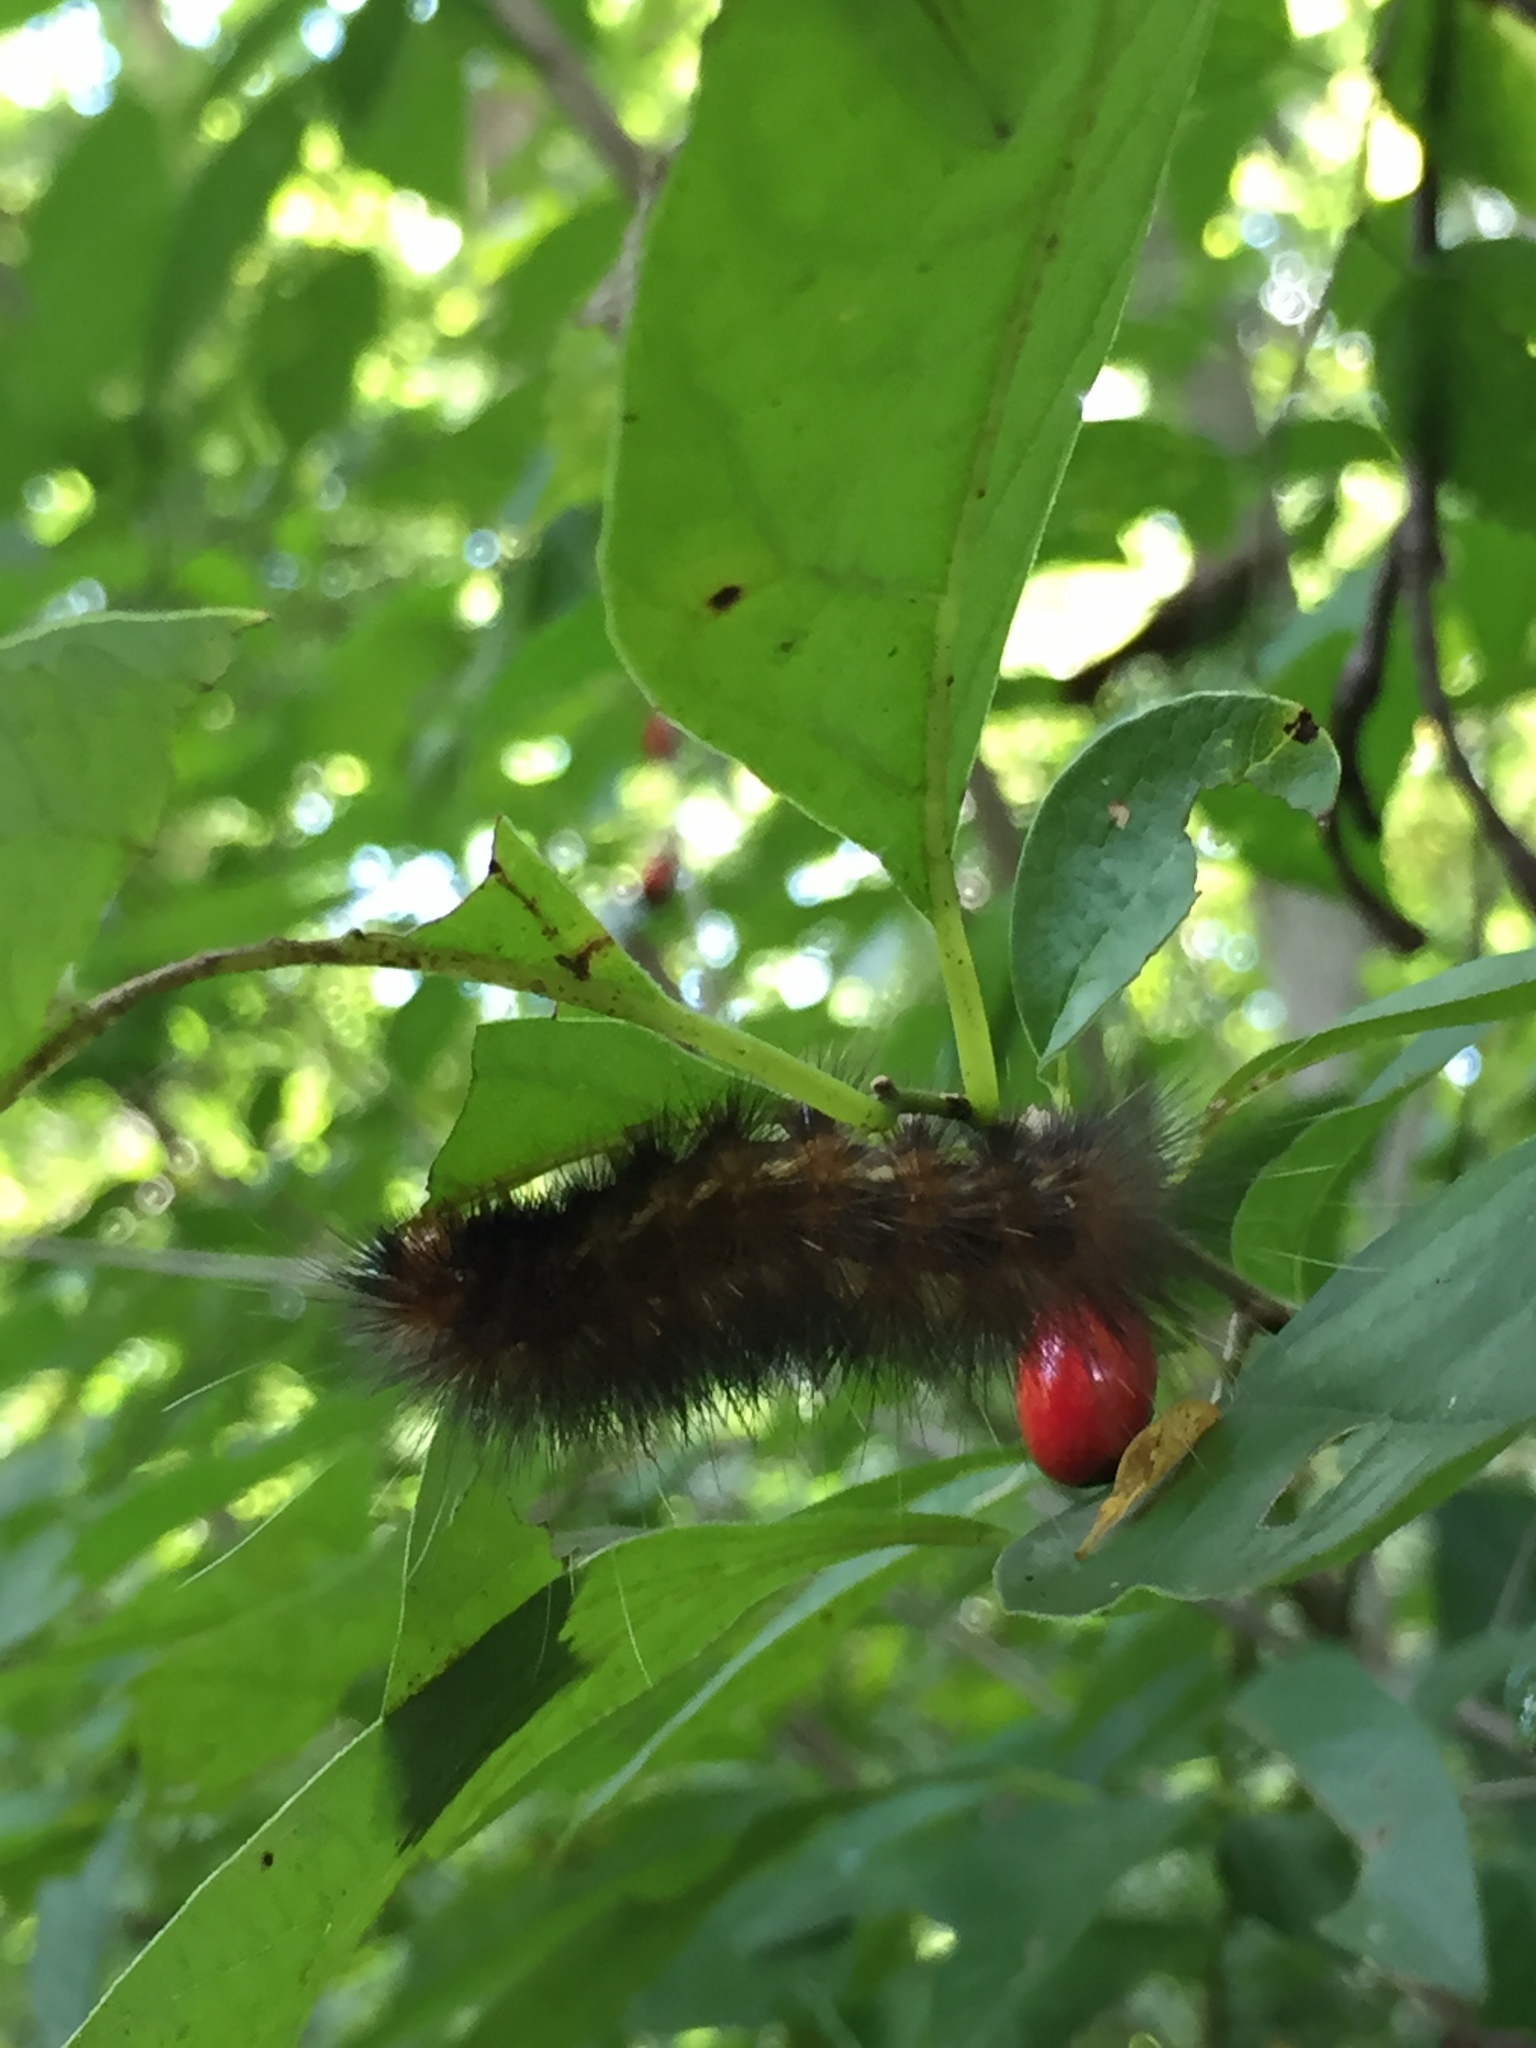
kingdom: Animalia
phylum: Arthropoda
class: Insecta
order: Lepidoptera
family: Erebidae
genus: Spilosoma
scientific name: Spilosoma virginica
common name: Virginia tiger moth
